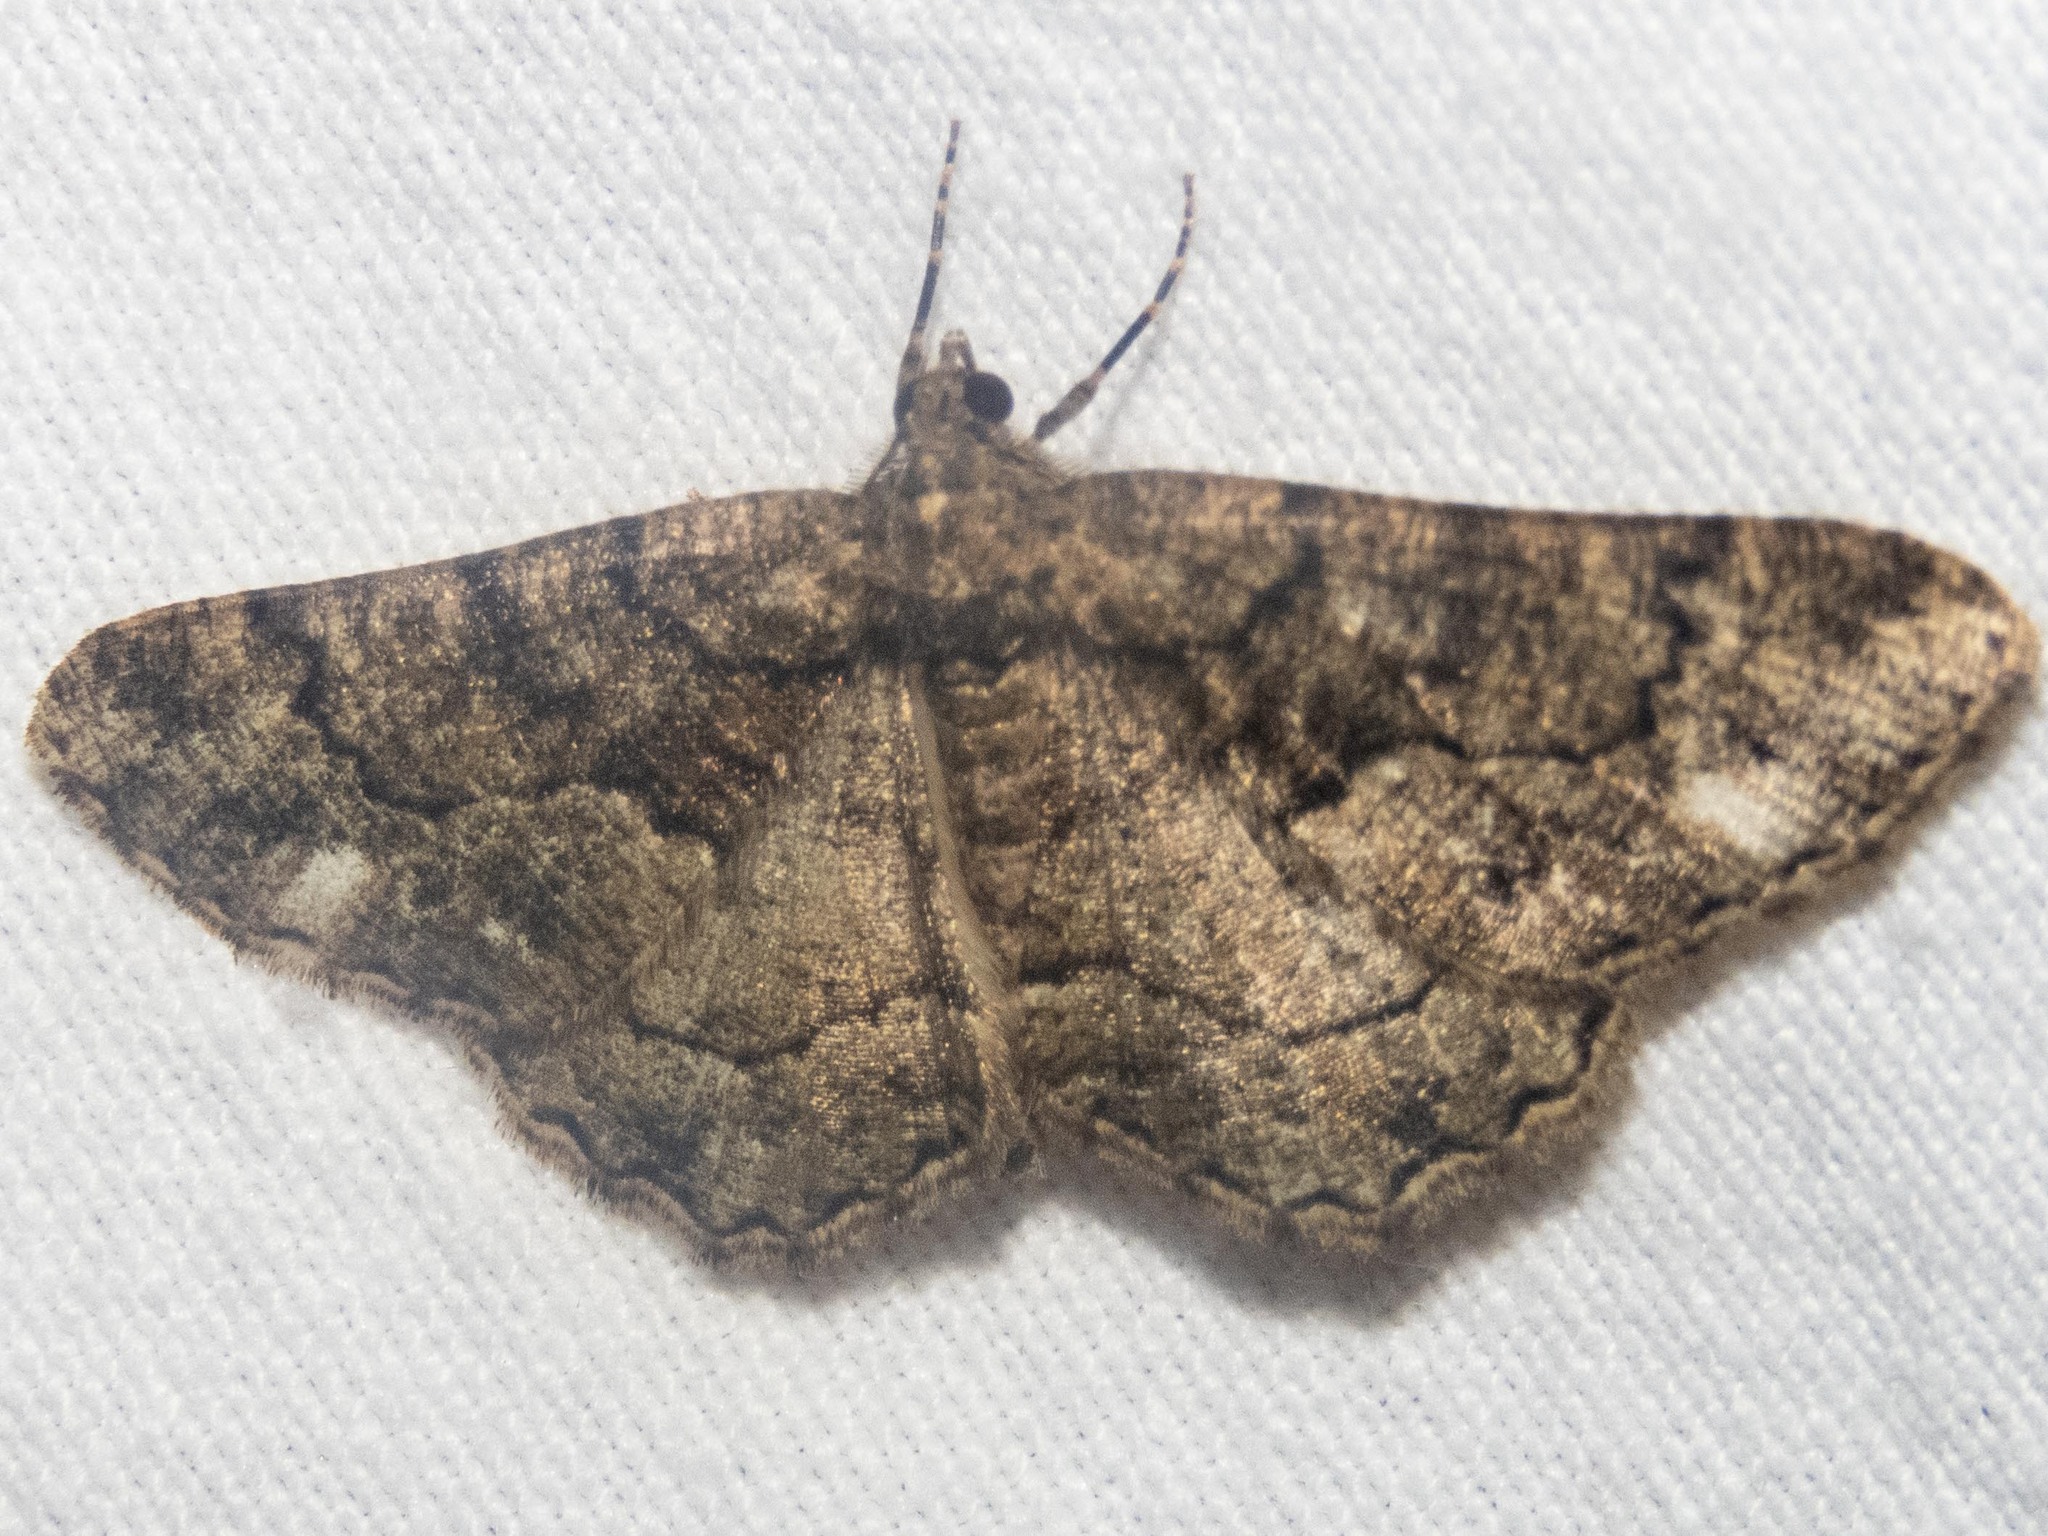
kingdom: Animalia
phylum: Arthropoda
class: Insecta
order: Lepidoptera
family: Geometridae
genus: Peribatodes
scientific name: Peribatodes ilicaria
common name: Lydd beauty
